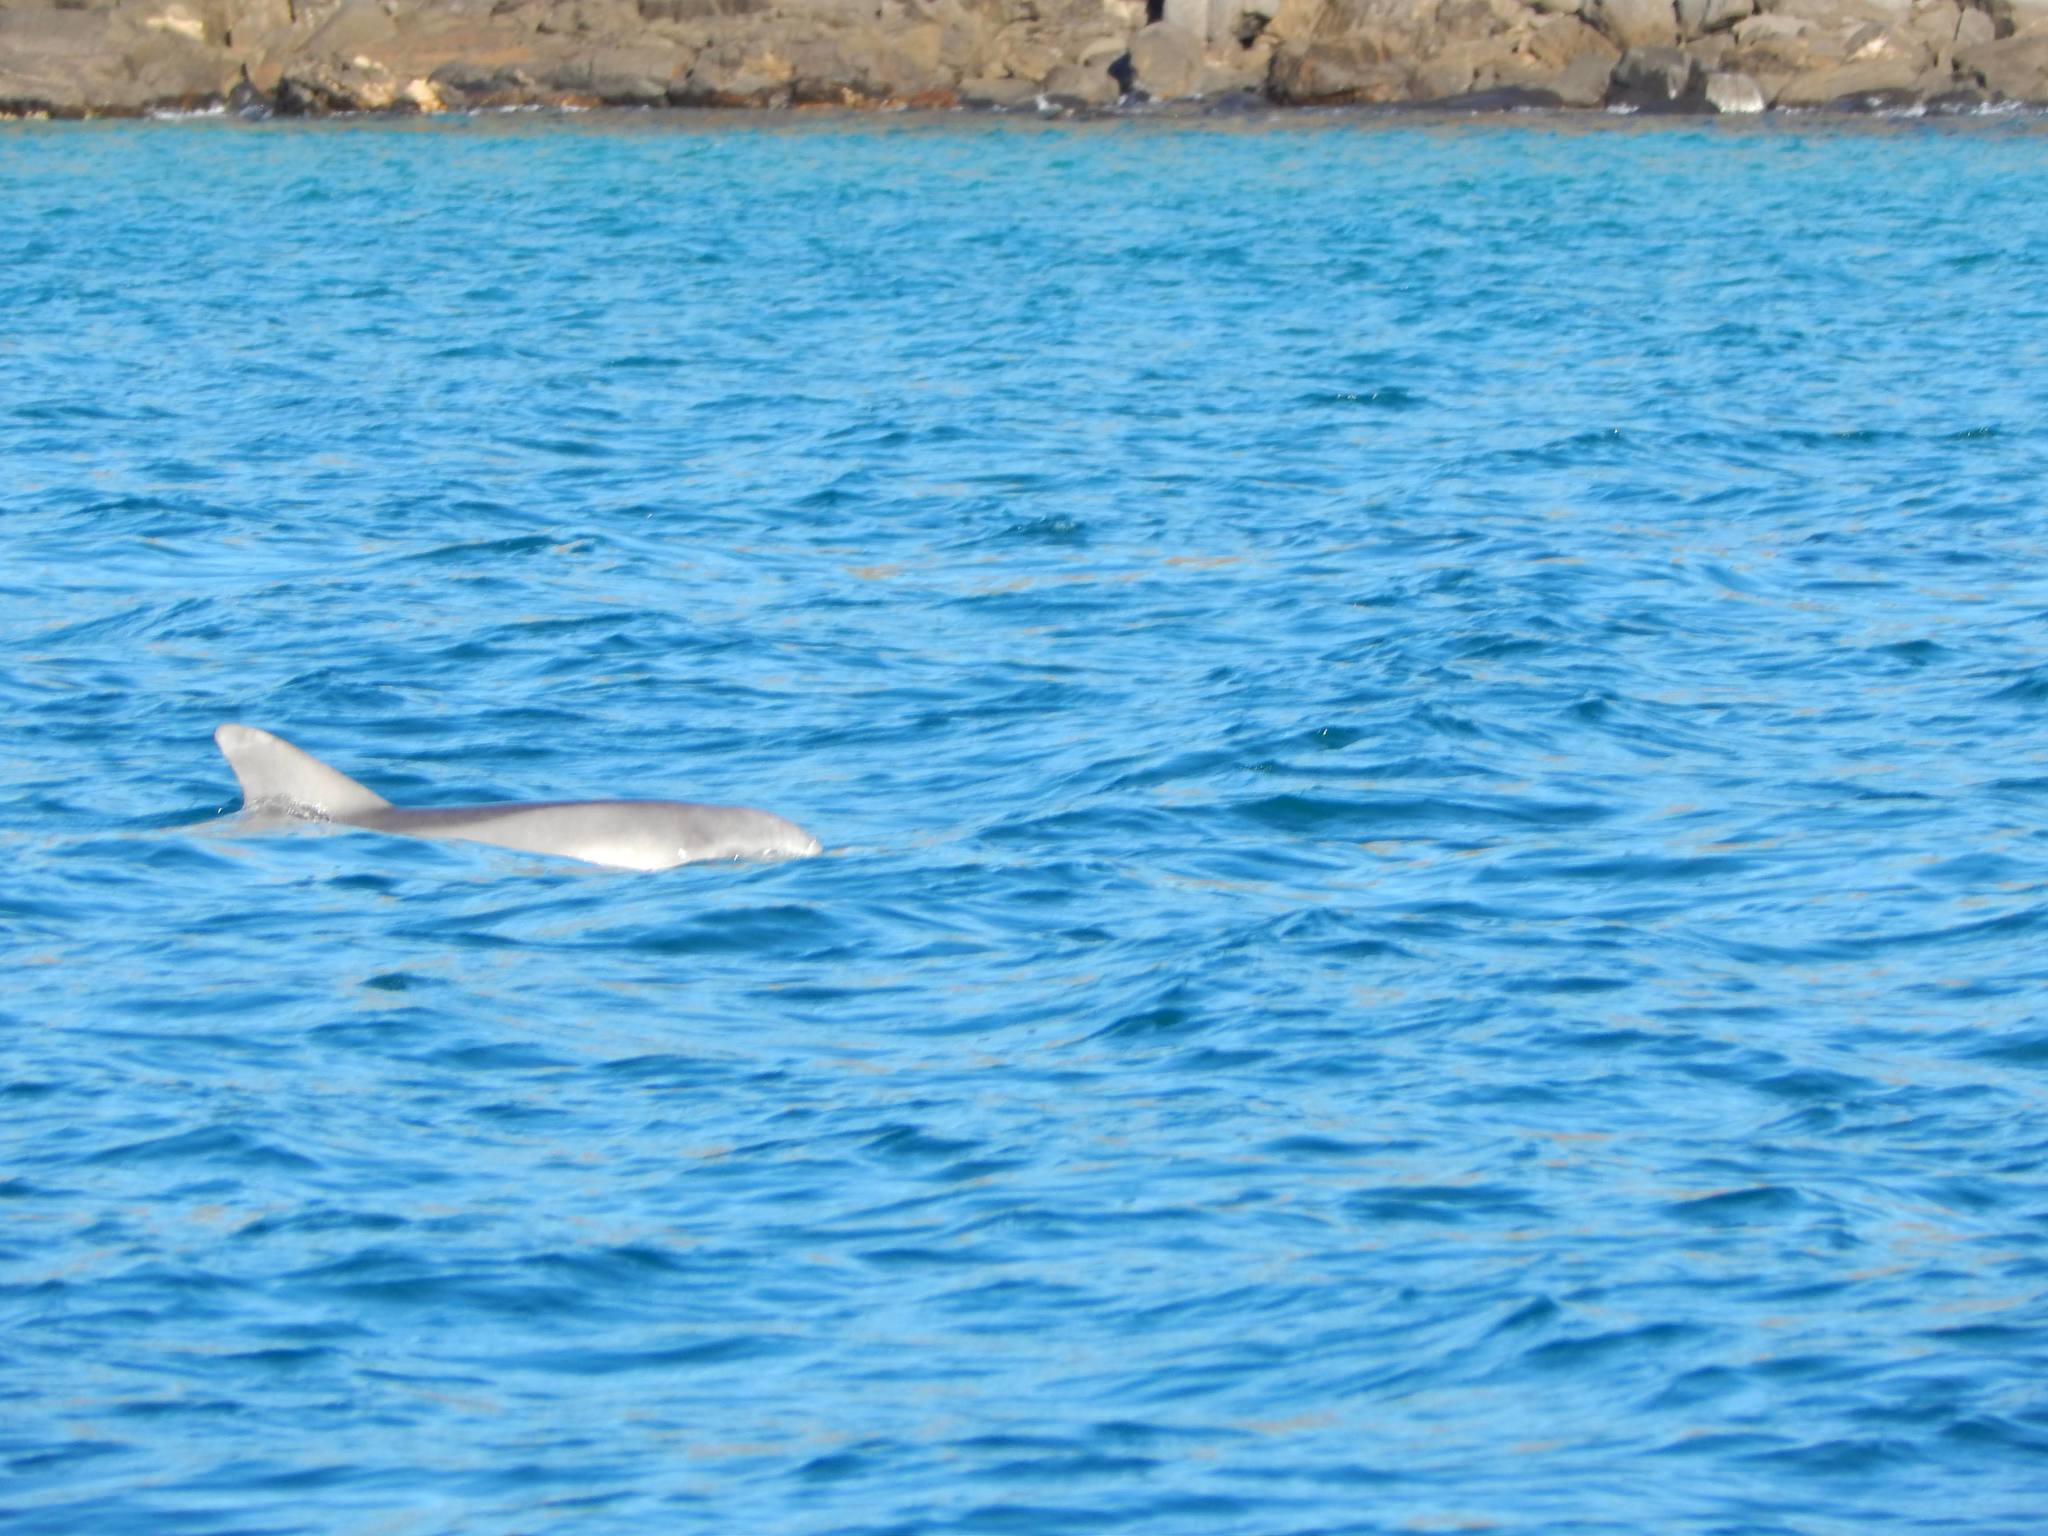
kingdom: Animalia
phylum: Chordata
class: Mammalia
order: Cetacea
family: Delphinidae
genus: Tursiops
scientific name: Tursiops
